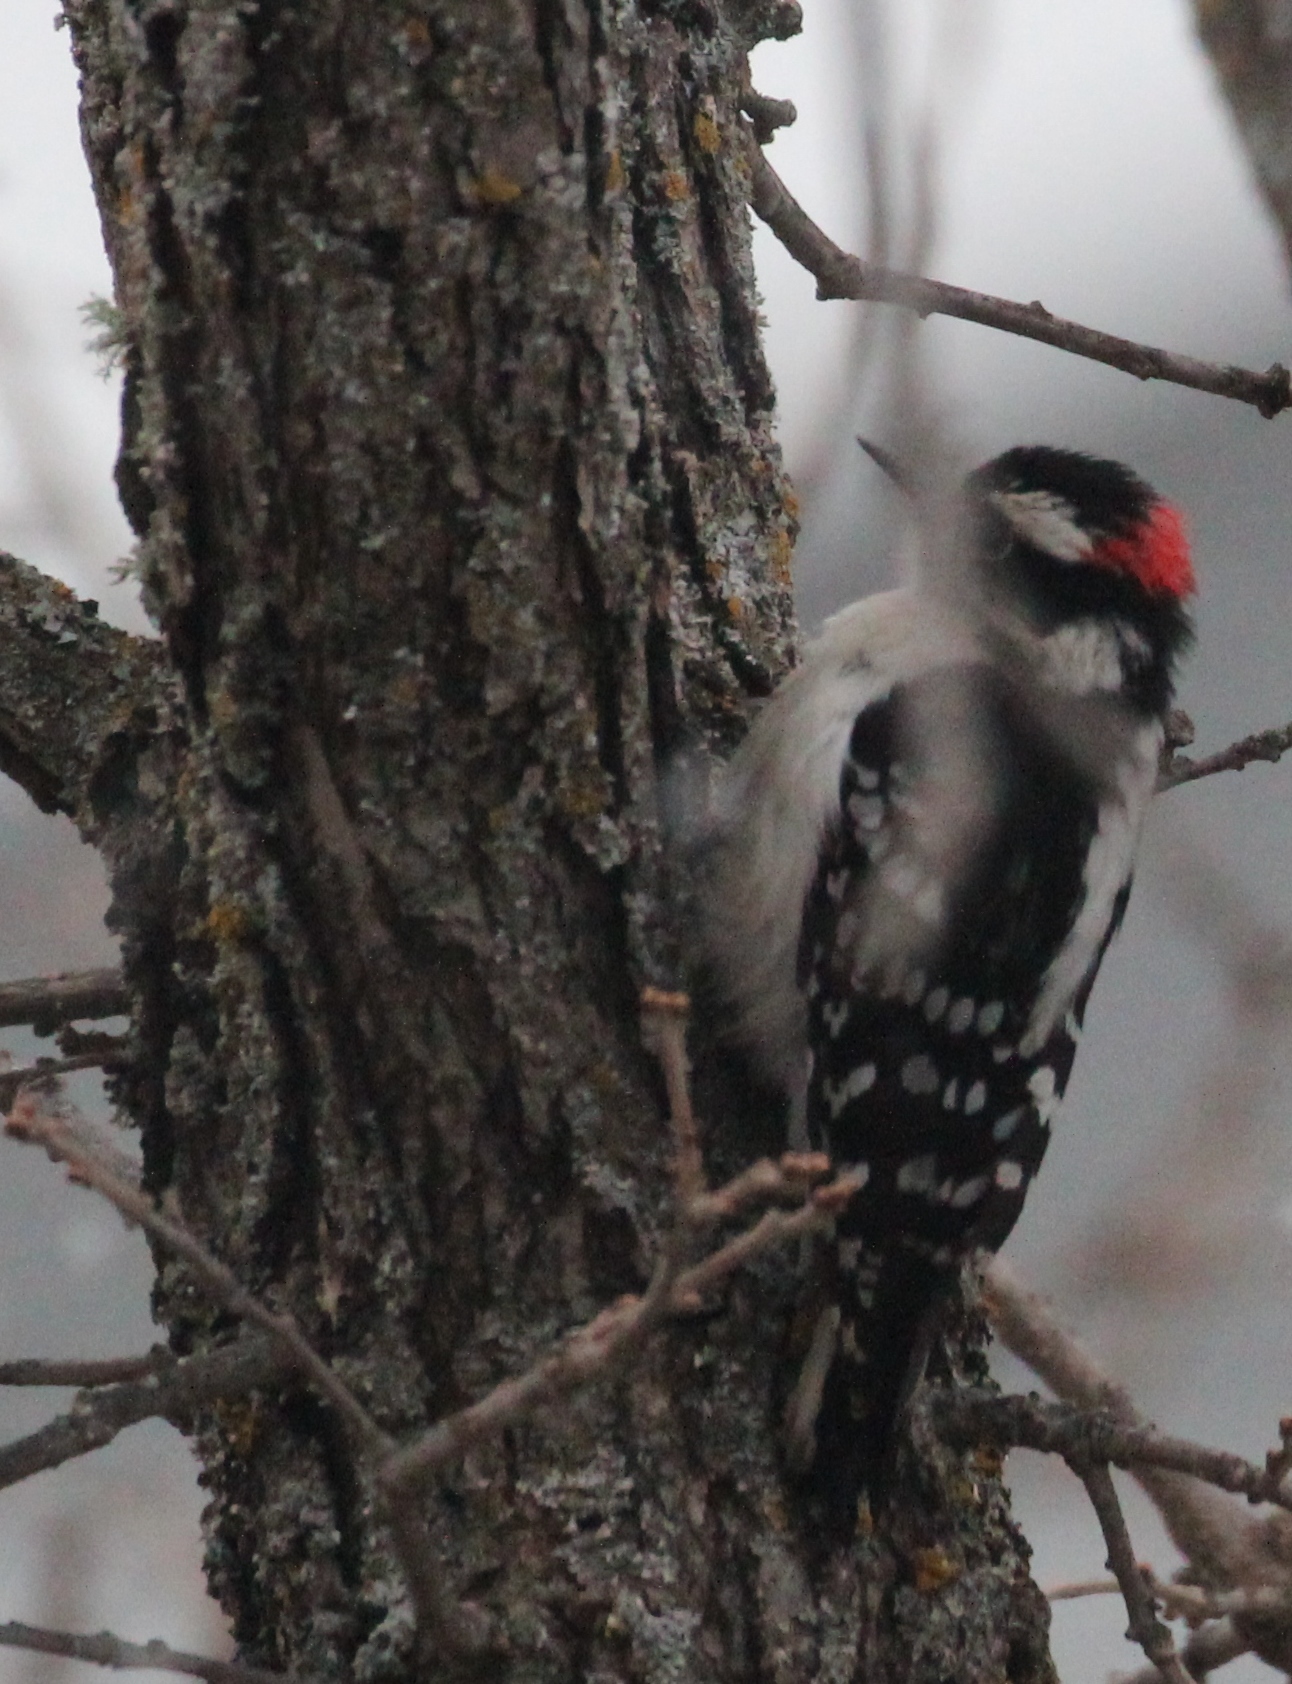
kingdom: Animalia
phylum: Chordata
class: Aves
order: Piciformes
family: Picidae
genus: Dryobates
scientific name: Dryobates pubescens
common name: Downy woodpecker
